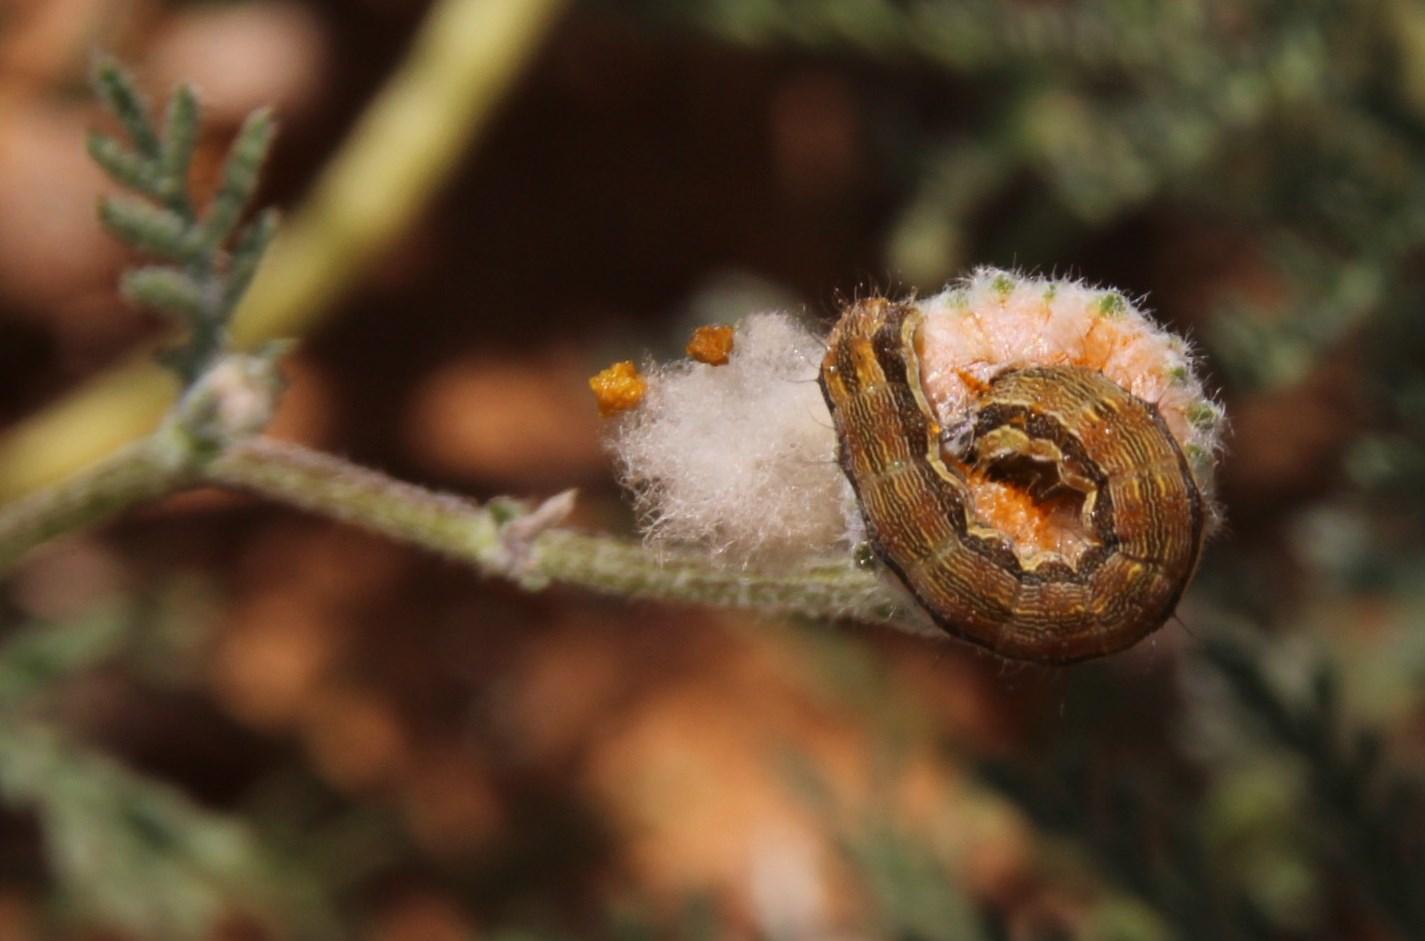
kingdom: Animalia
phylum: Arthropoda
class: Insecta
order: Lepidoptera
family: Noctuidae
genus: Helicoverpa
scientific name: Helicoverpa armigera
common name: Cotton bollworm
